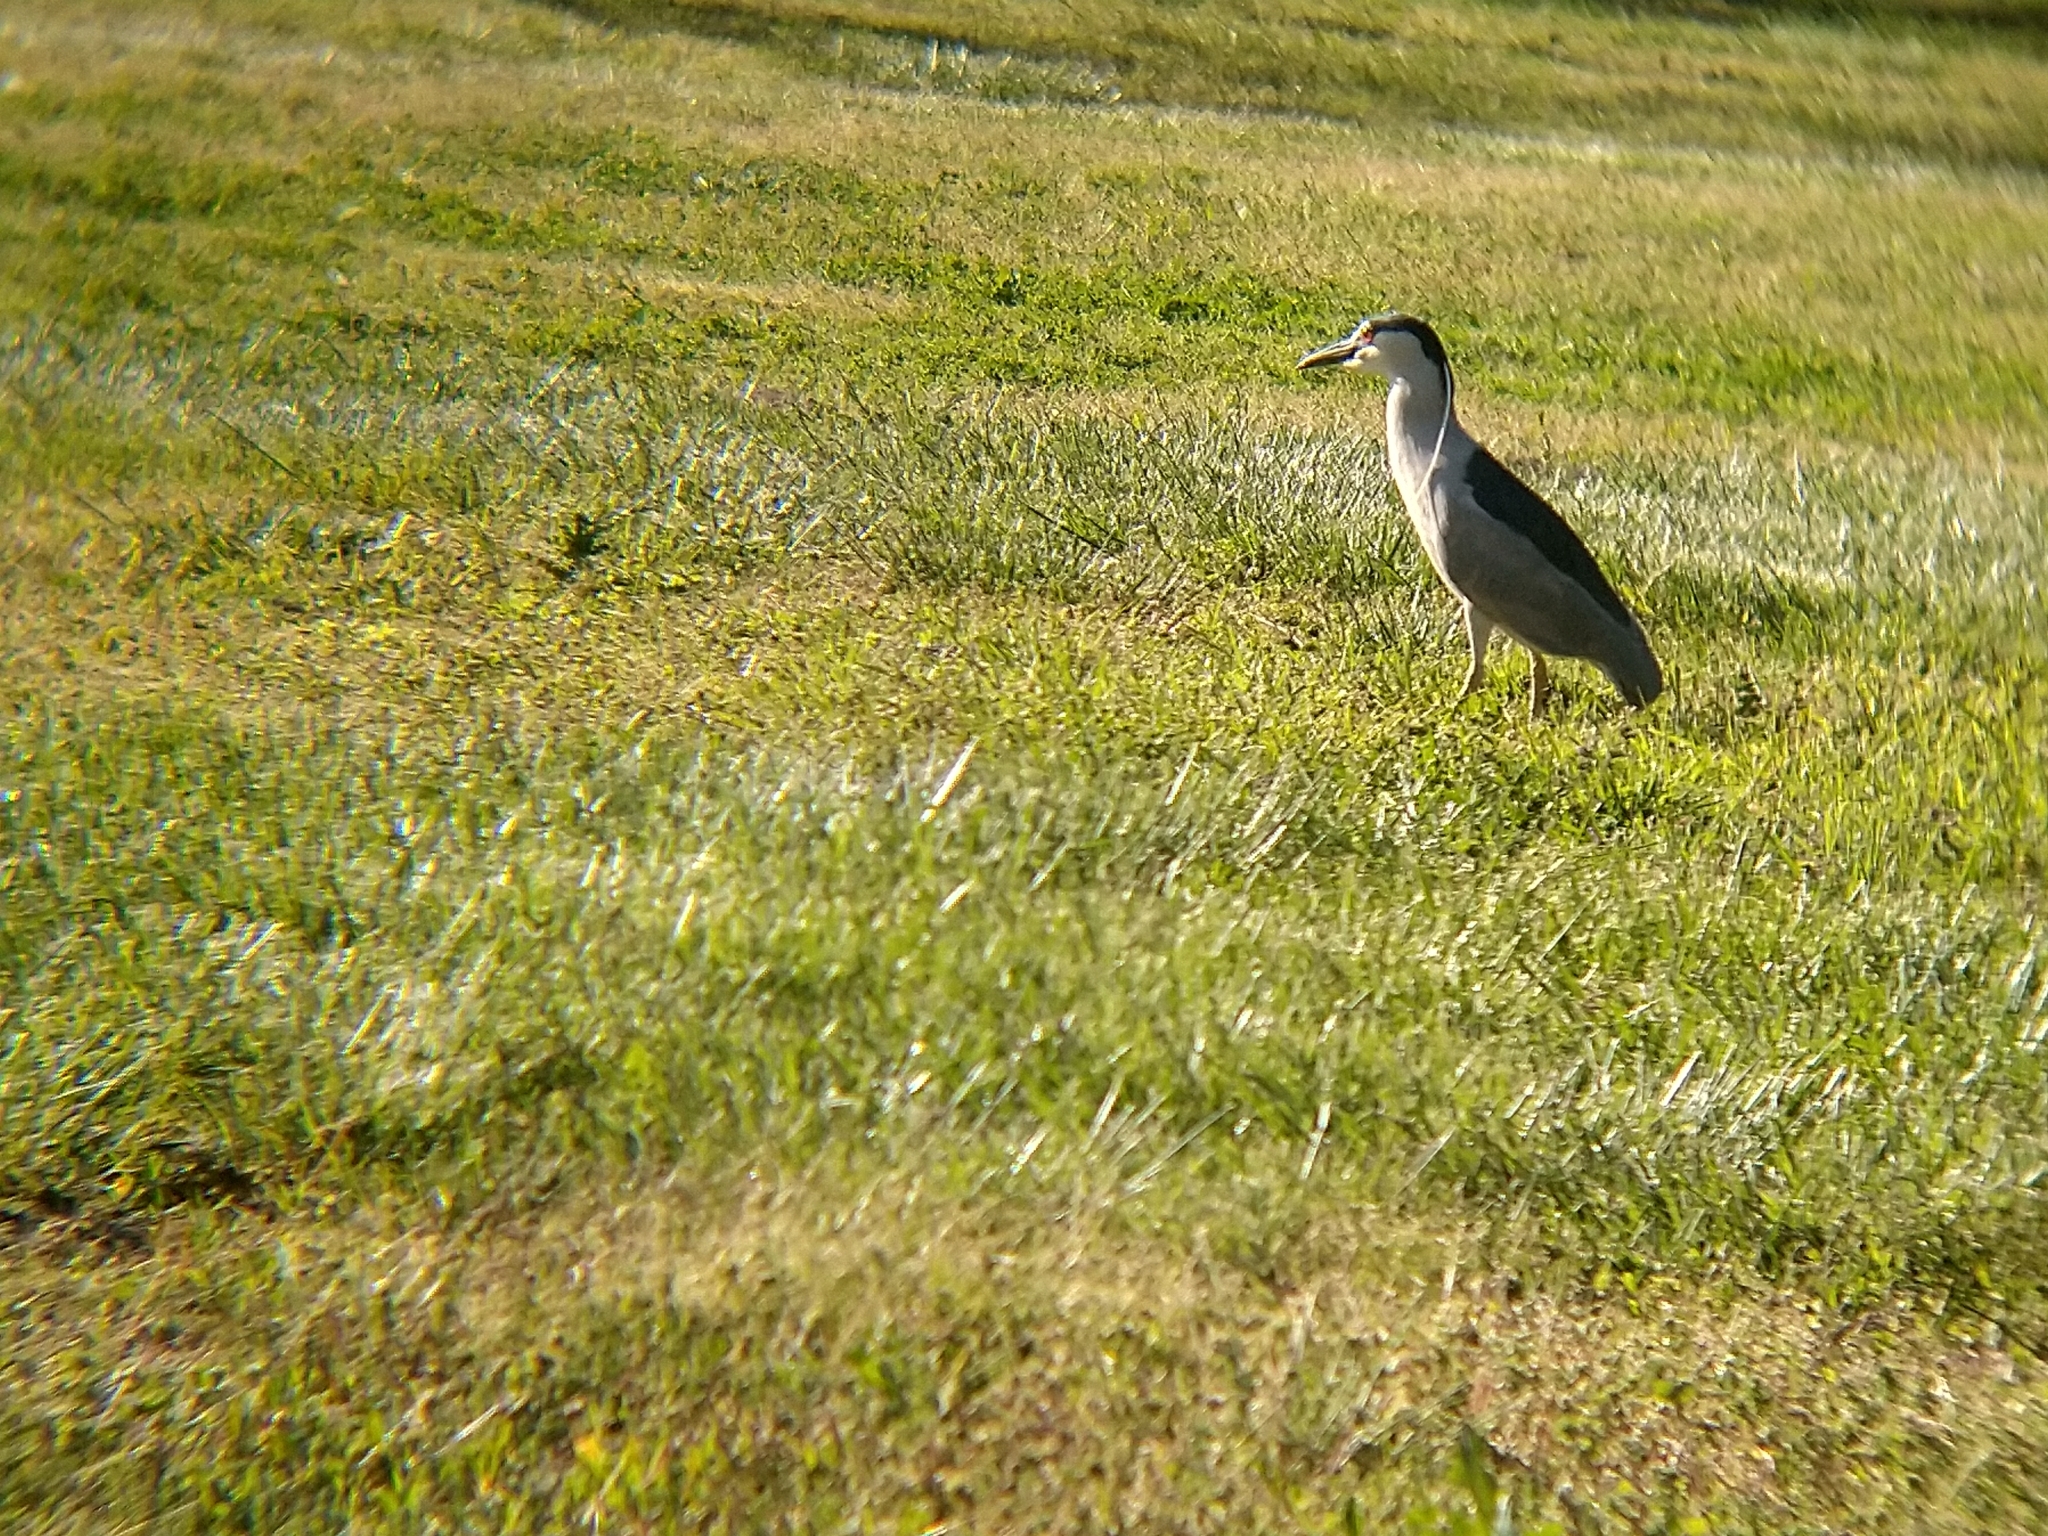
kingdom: Animalia
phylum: Chordata
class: Aves
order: Pelecaniformes
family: Ardeidae
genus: Nycticorax
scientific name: Nycticorax nycticorax
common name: Black-crowned night heron
